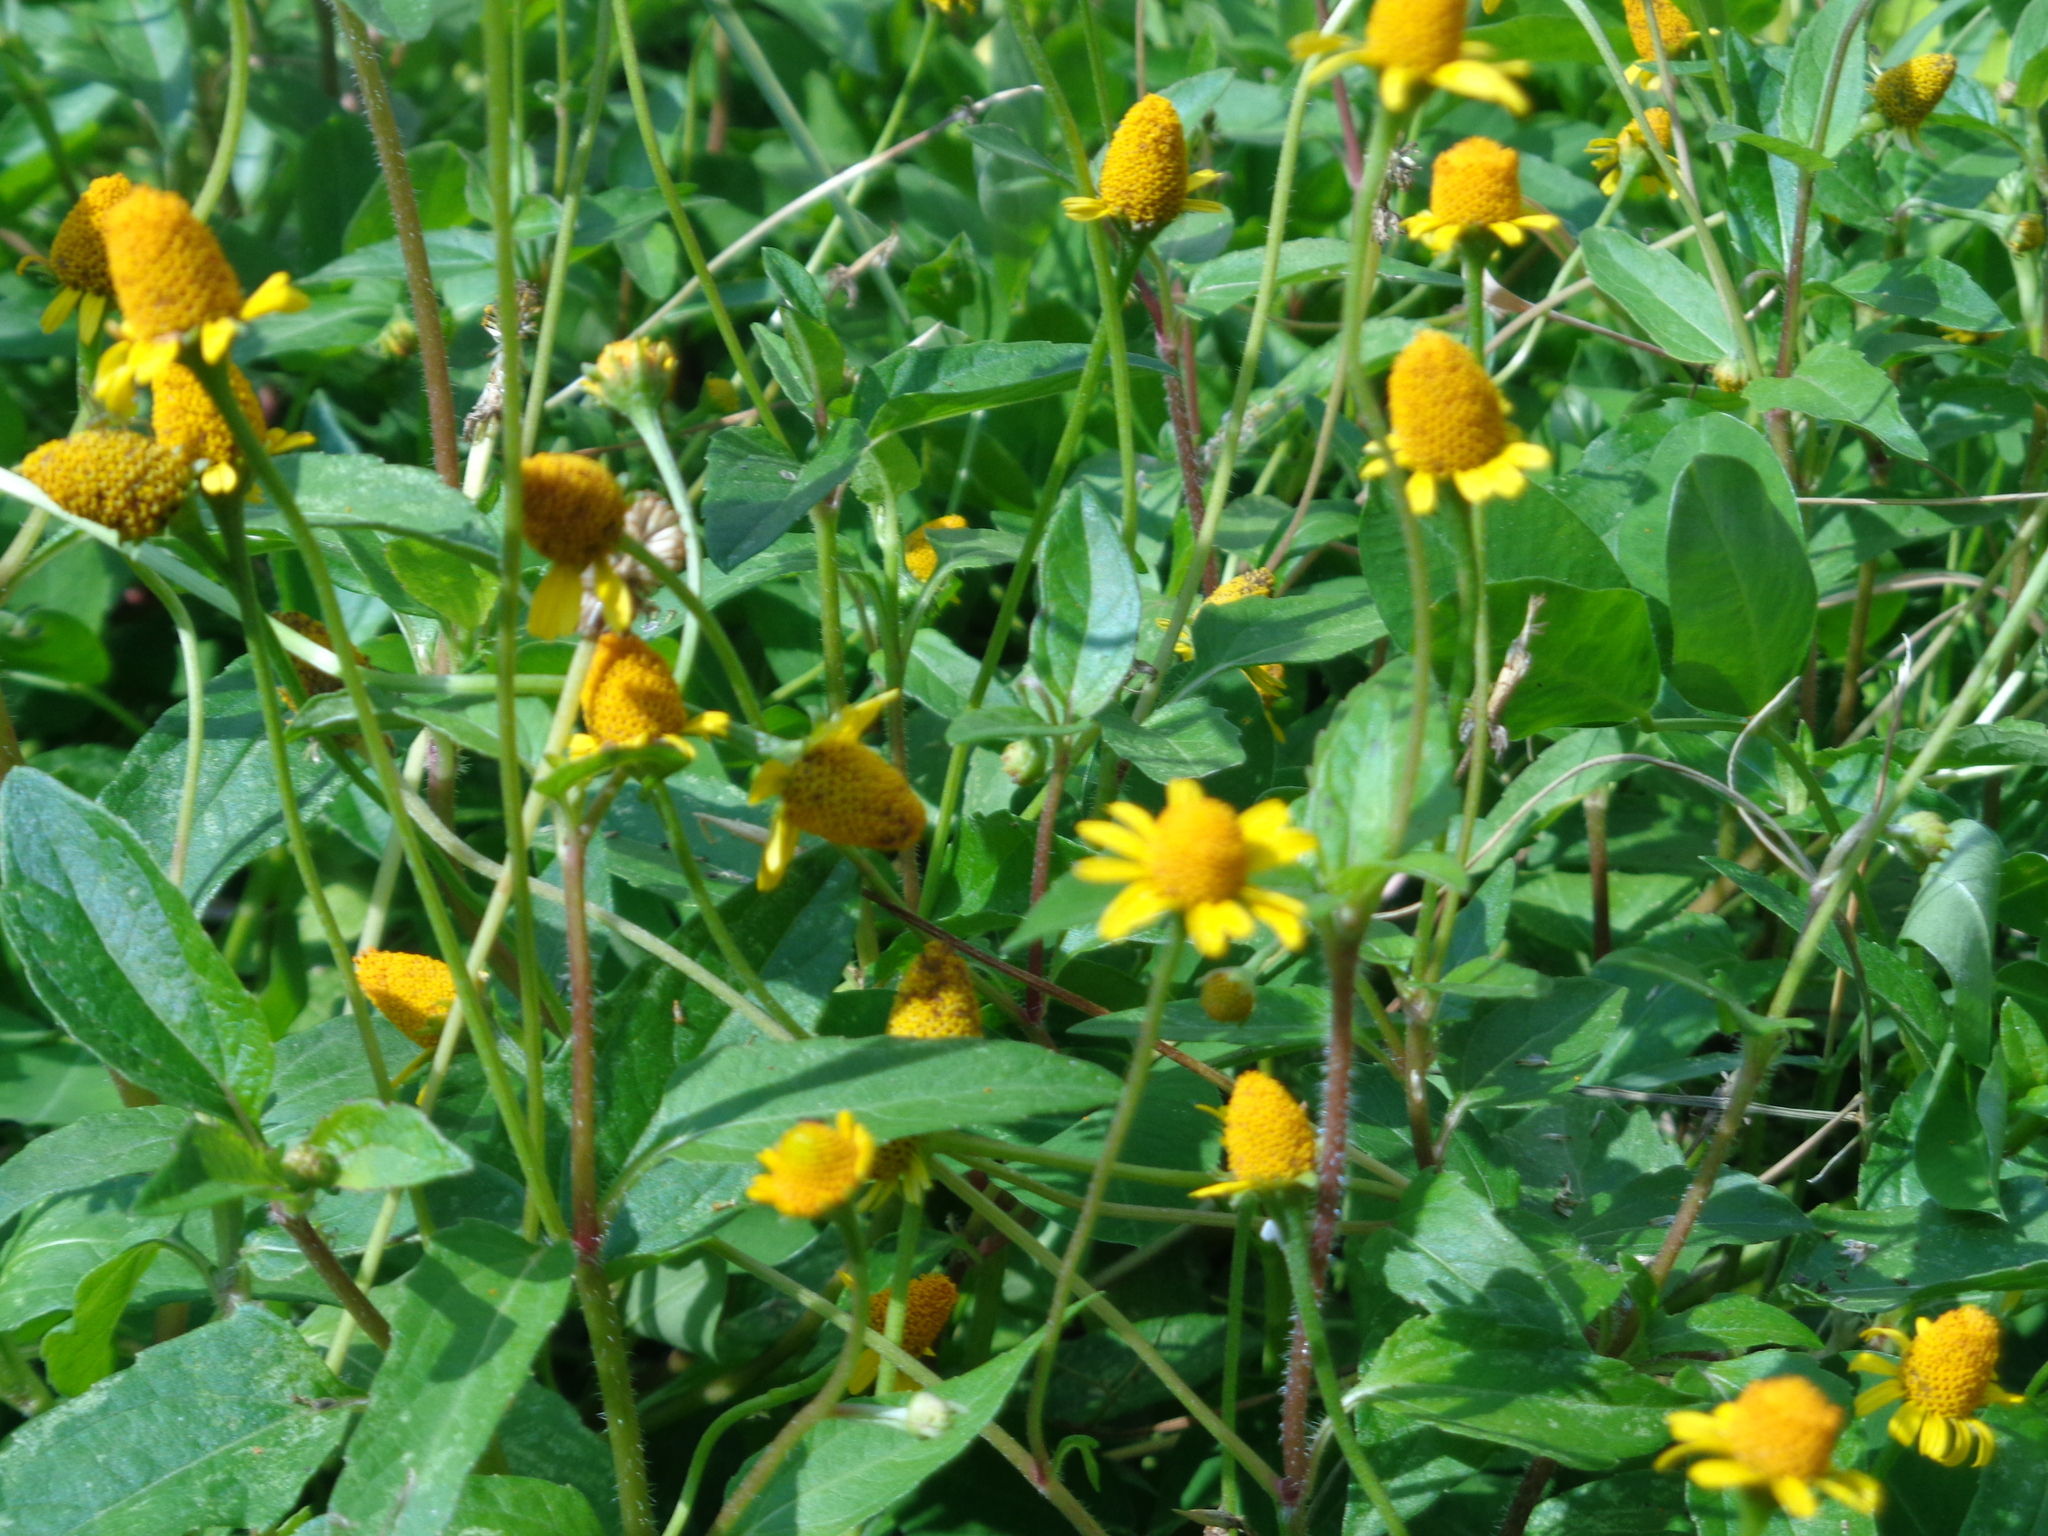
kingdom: Plantae
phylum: Tracheophyta
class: Magnoliopsida
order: Asterales
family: Asteraceae
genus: Acmella
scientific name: Acmella repens
